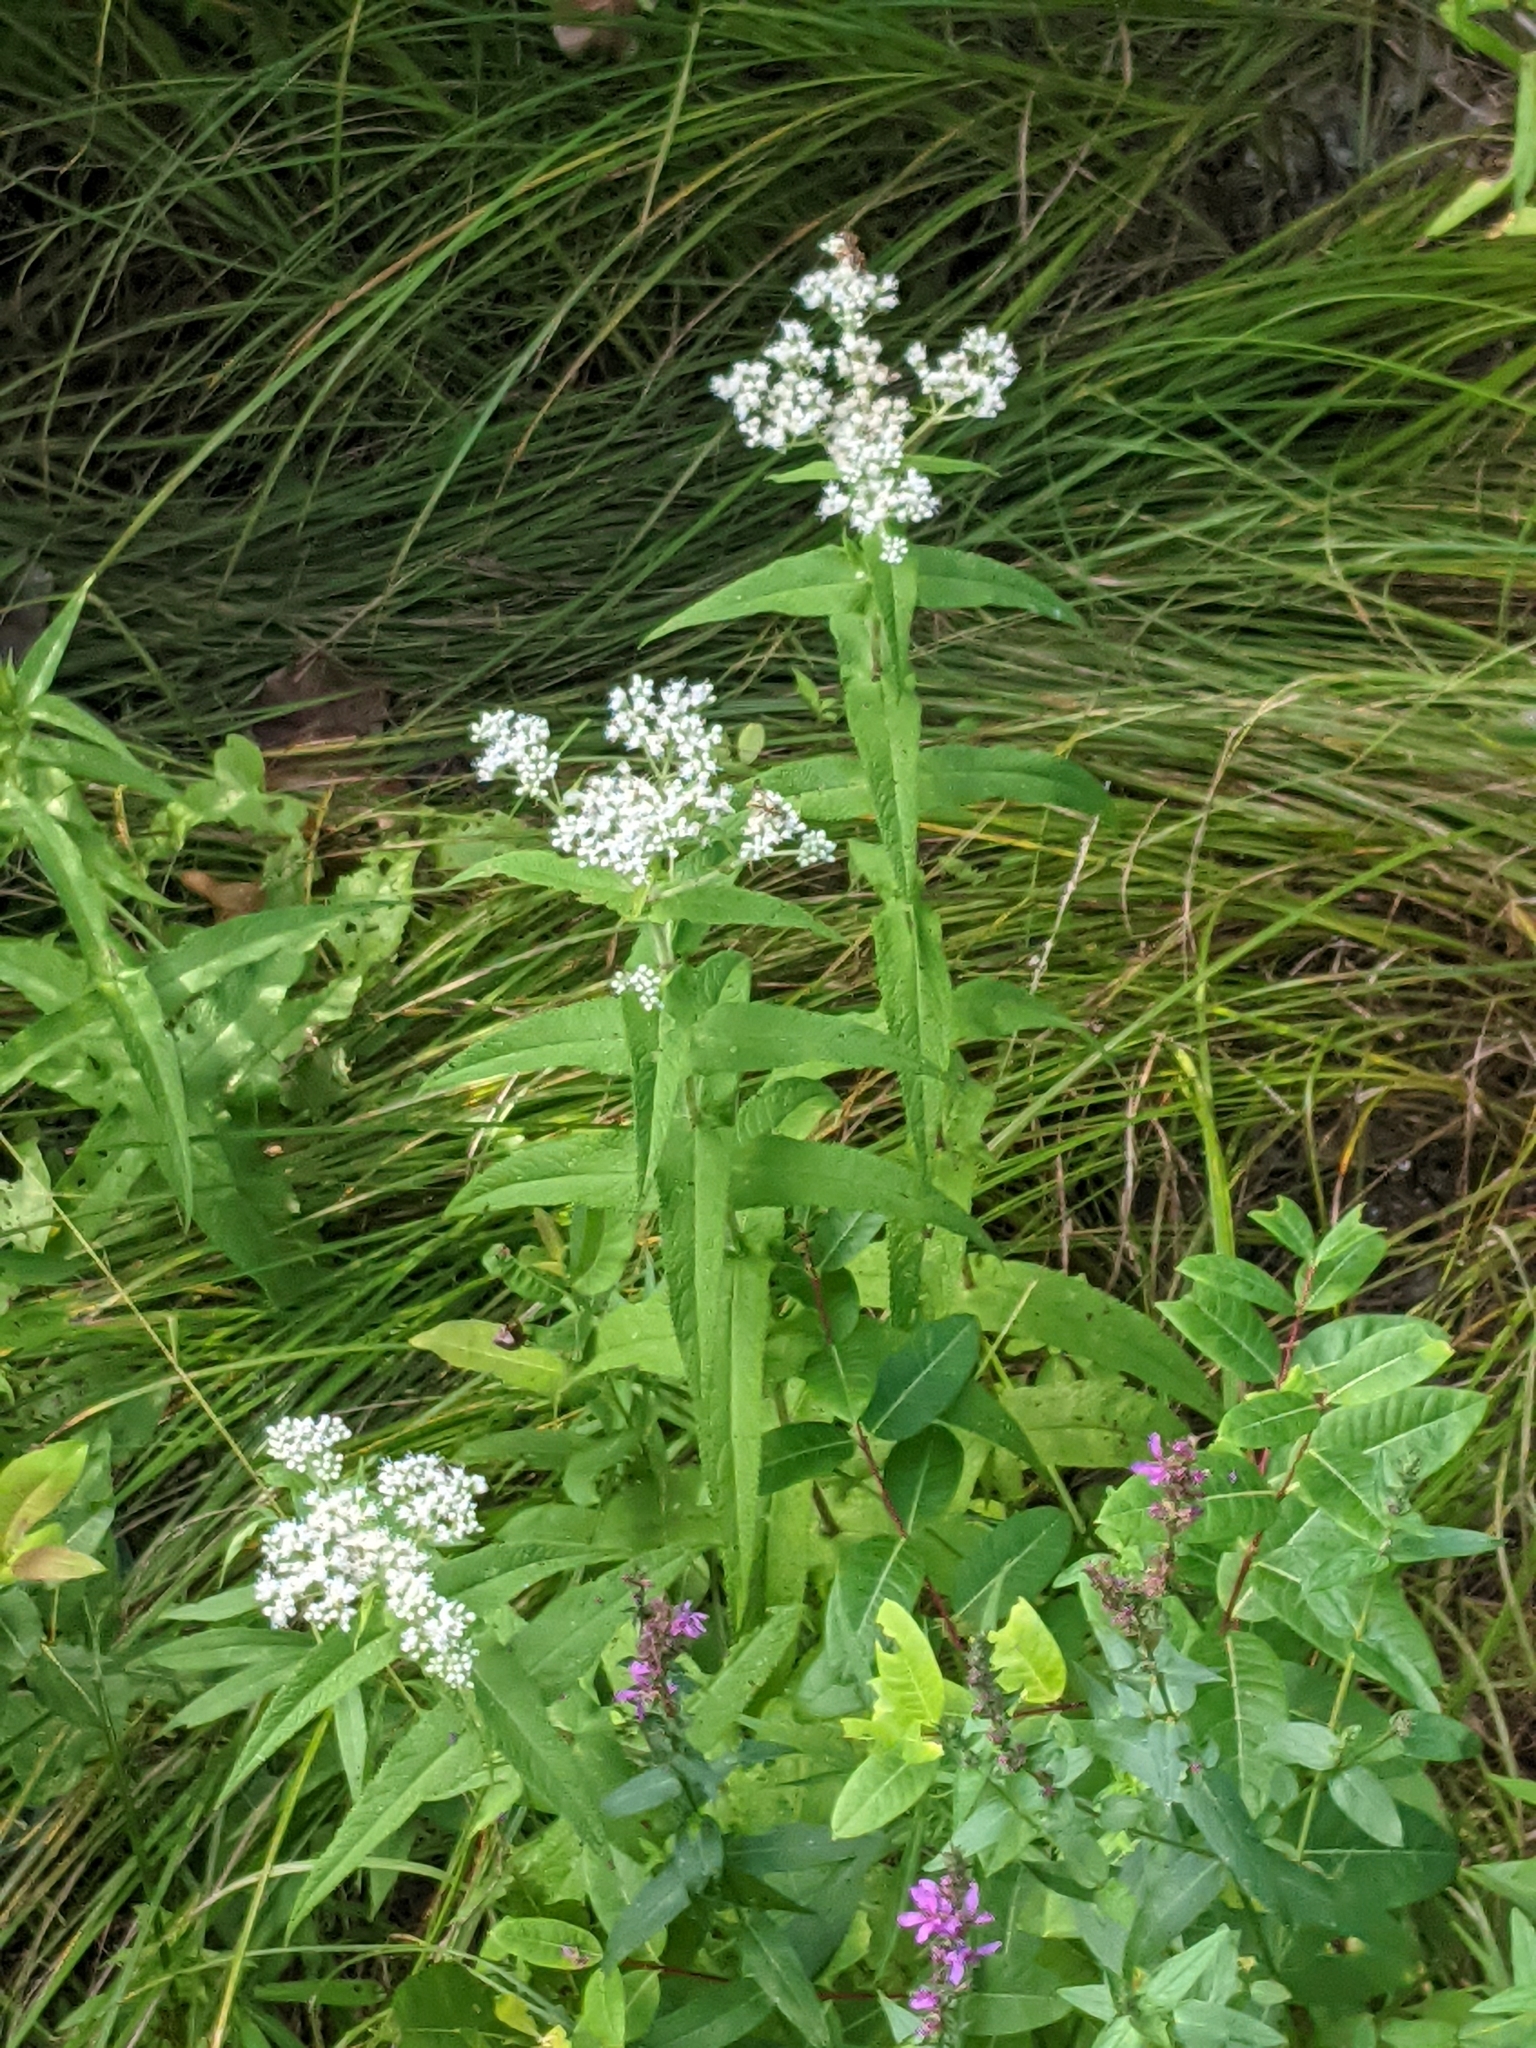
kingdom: Plantae
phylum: Tracheophyta
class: Magnoliopsida
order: Asterales
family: Asteraceae
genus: Eupatorium
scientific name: Eupatorium perfoliatum
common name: Boneset
